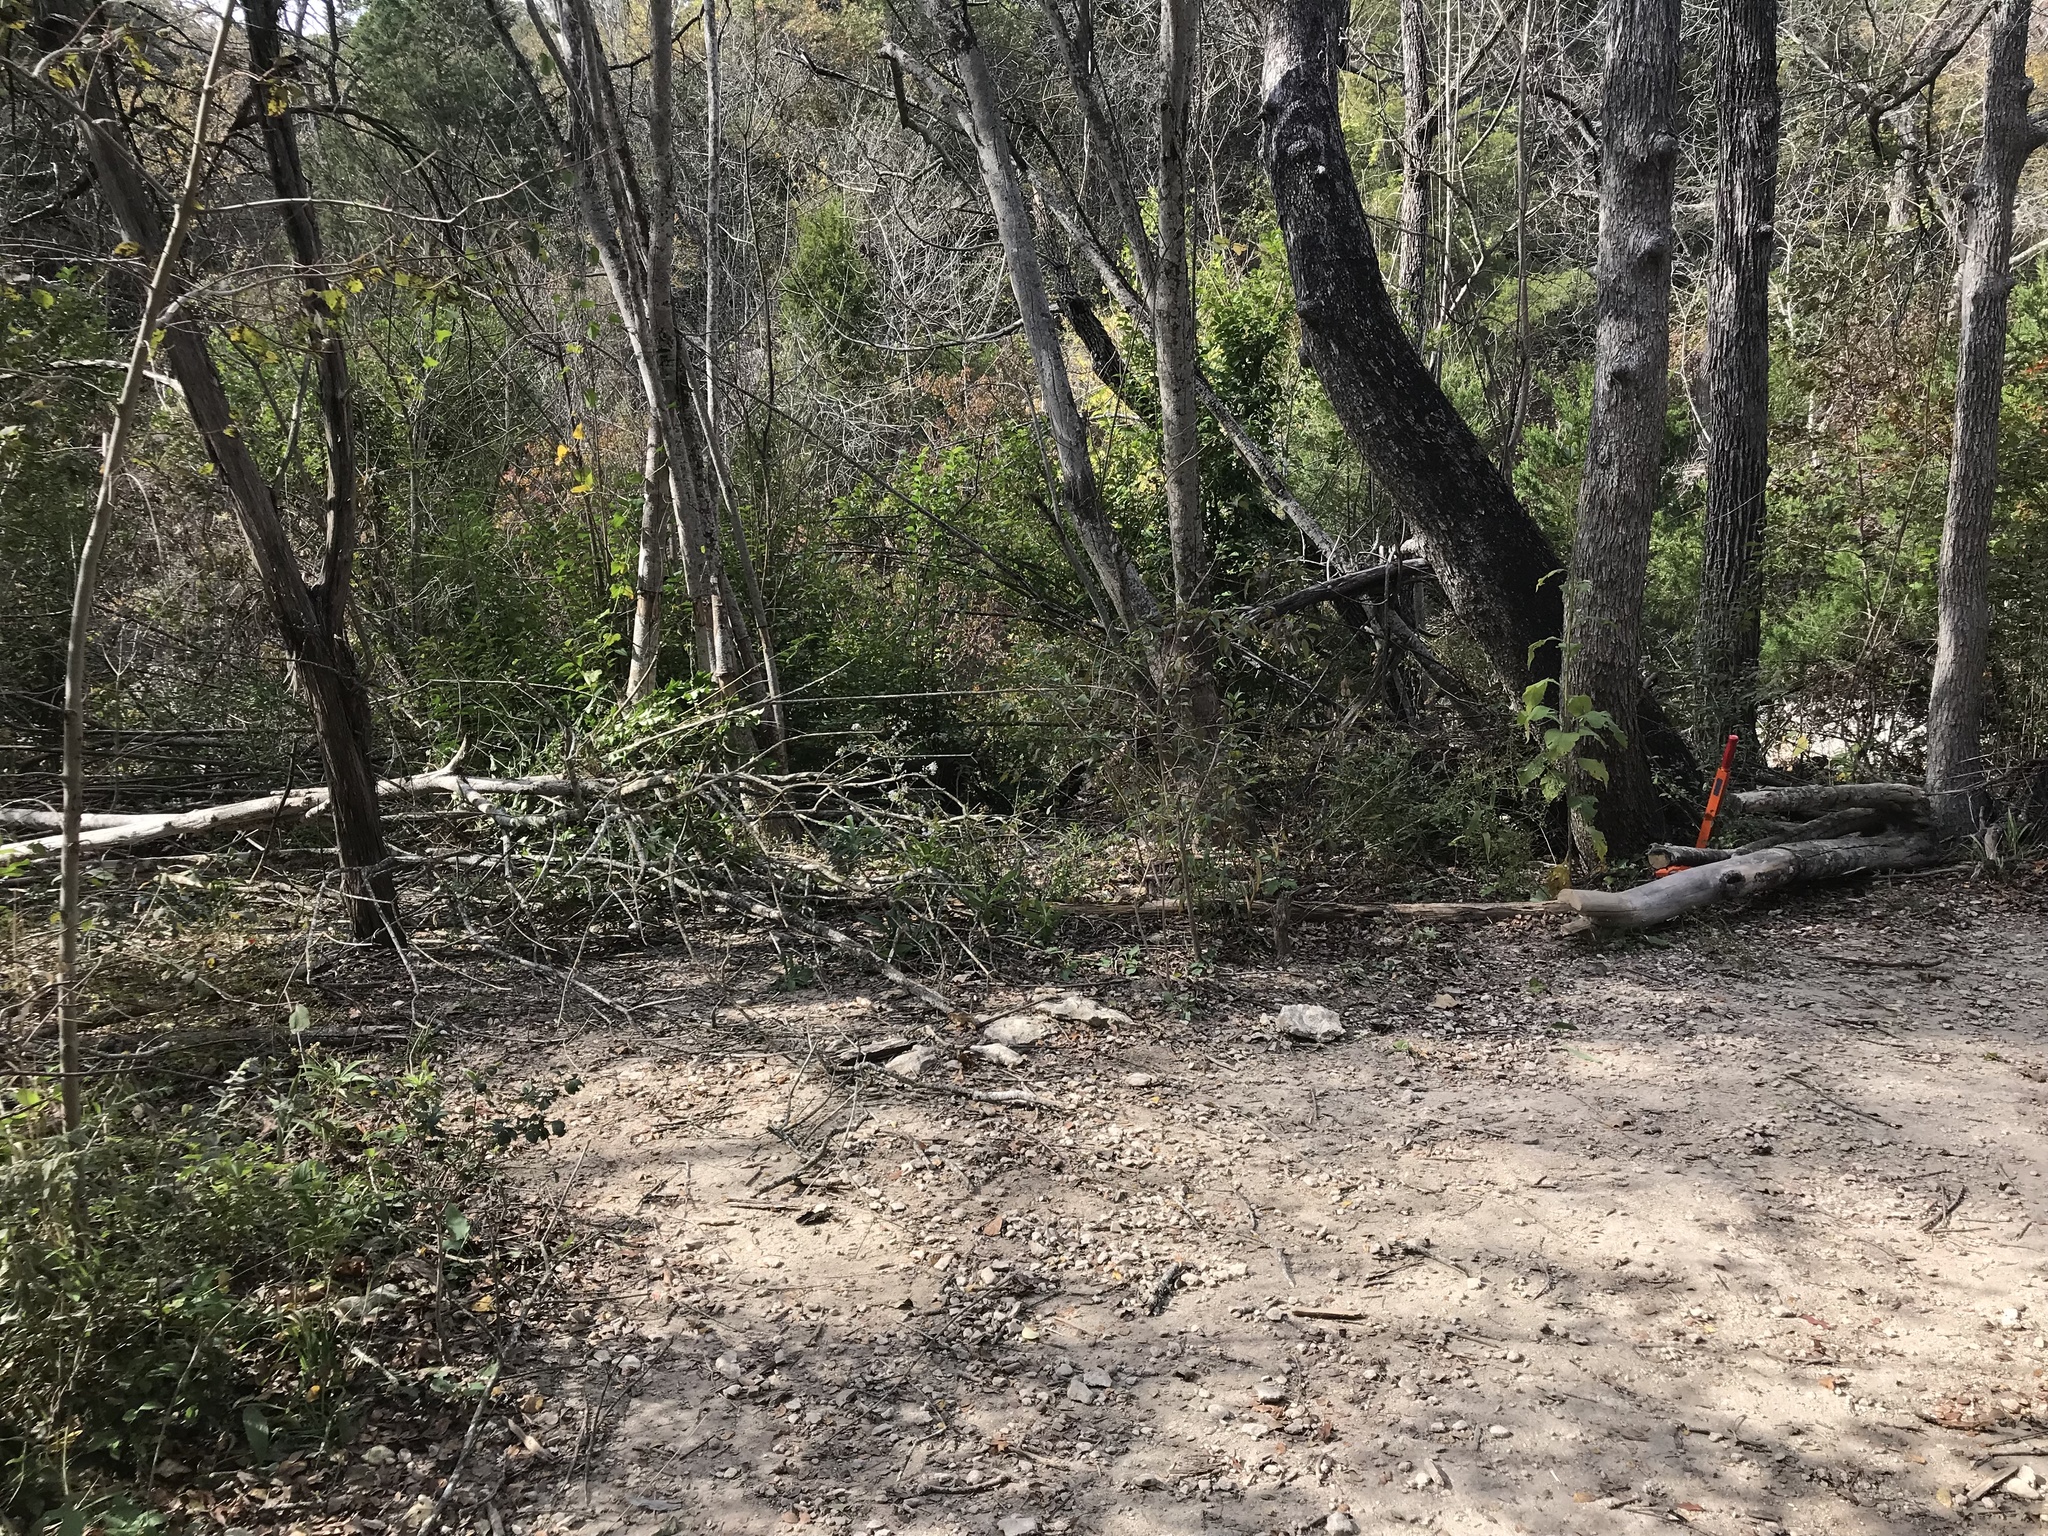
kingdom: Plantae
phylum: Tracheophyta
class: Magnoliopsida
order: Lamiales
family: Oleaceae
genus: Ligustrum
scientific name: Ligustrum lucidum
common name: Glossy privet
